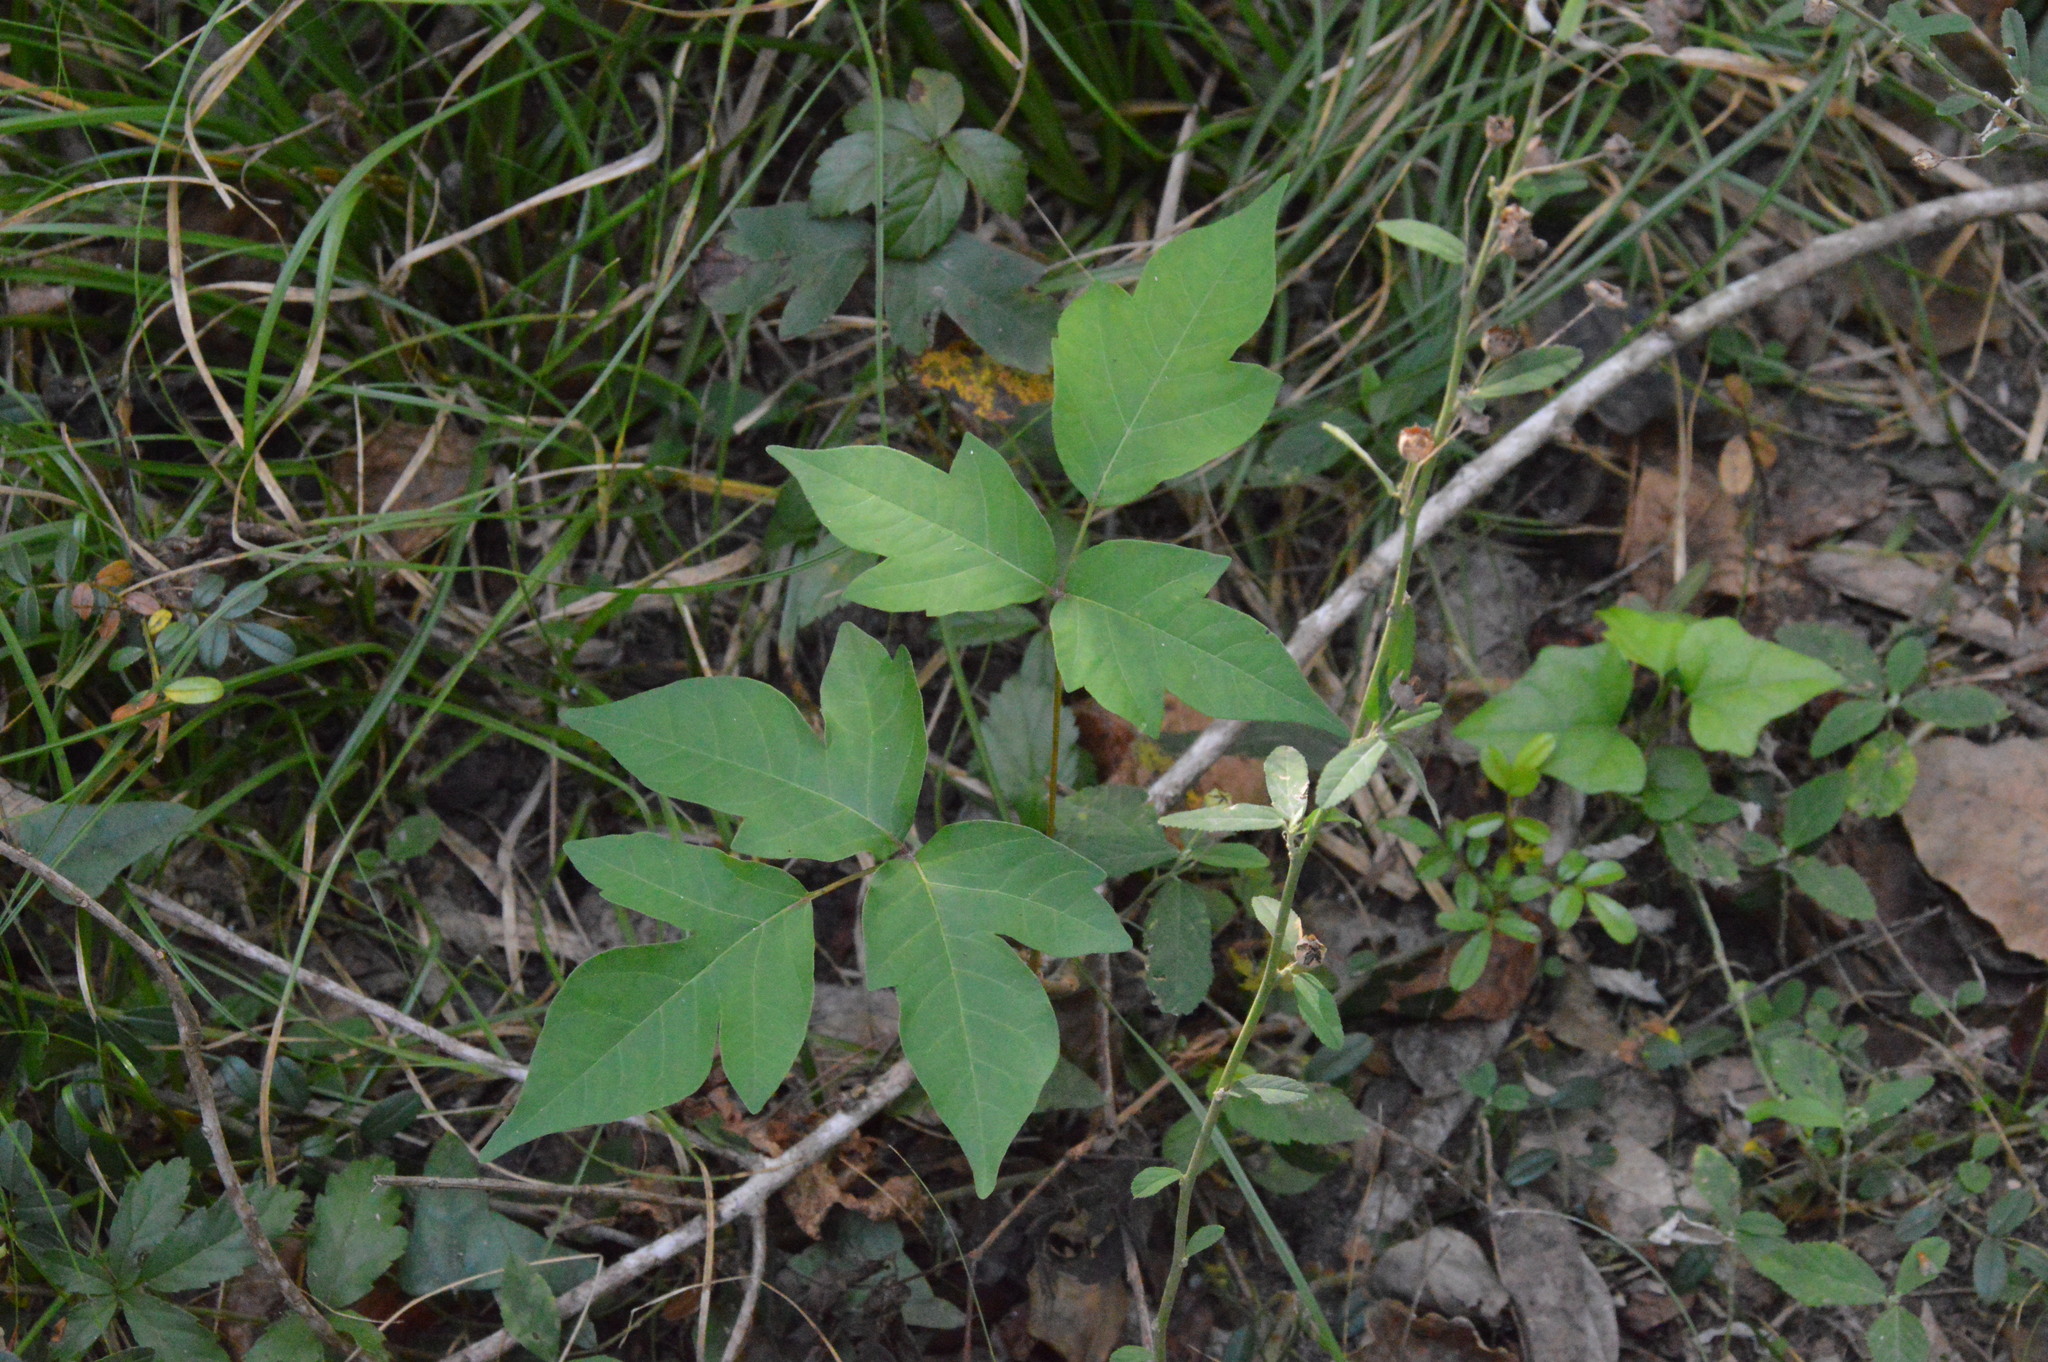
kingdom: Plantae
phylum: Tracheophyta
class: Magnoliopsida
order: Sapindales
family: Anacardiaceae
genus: Toxicodendron
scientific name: Toxicodendron radicans
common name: Poison ivy
